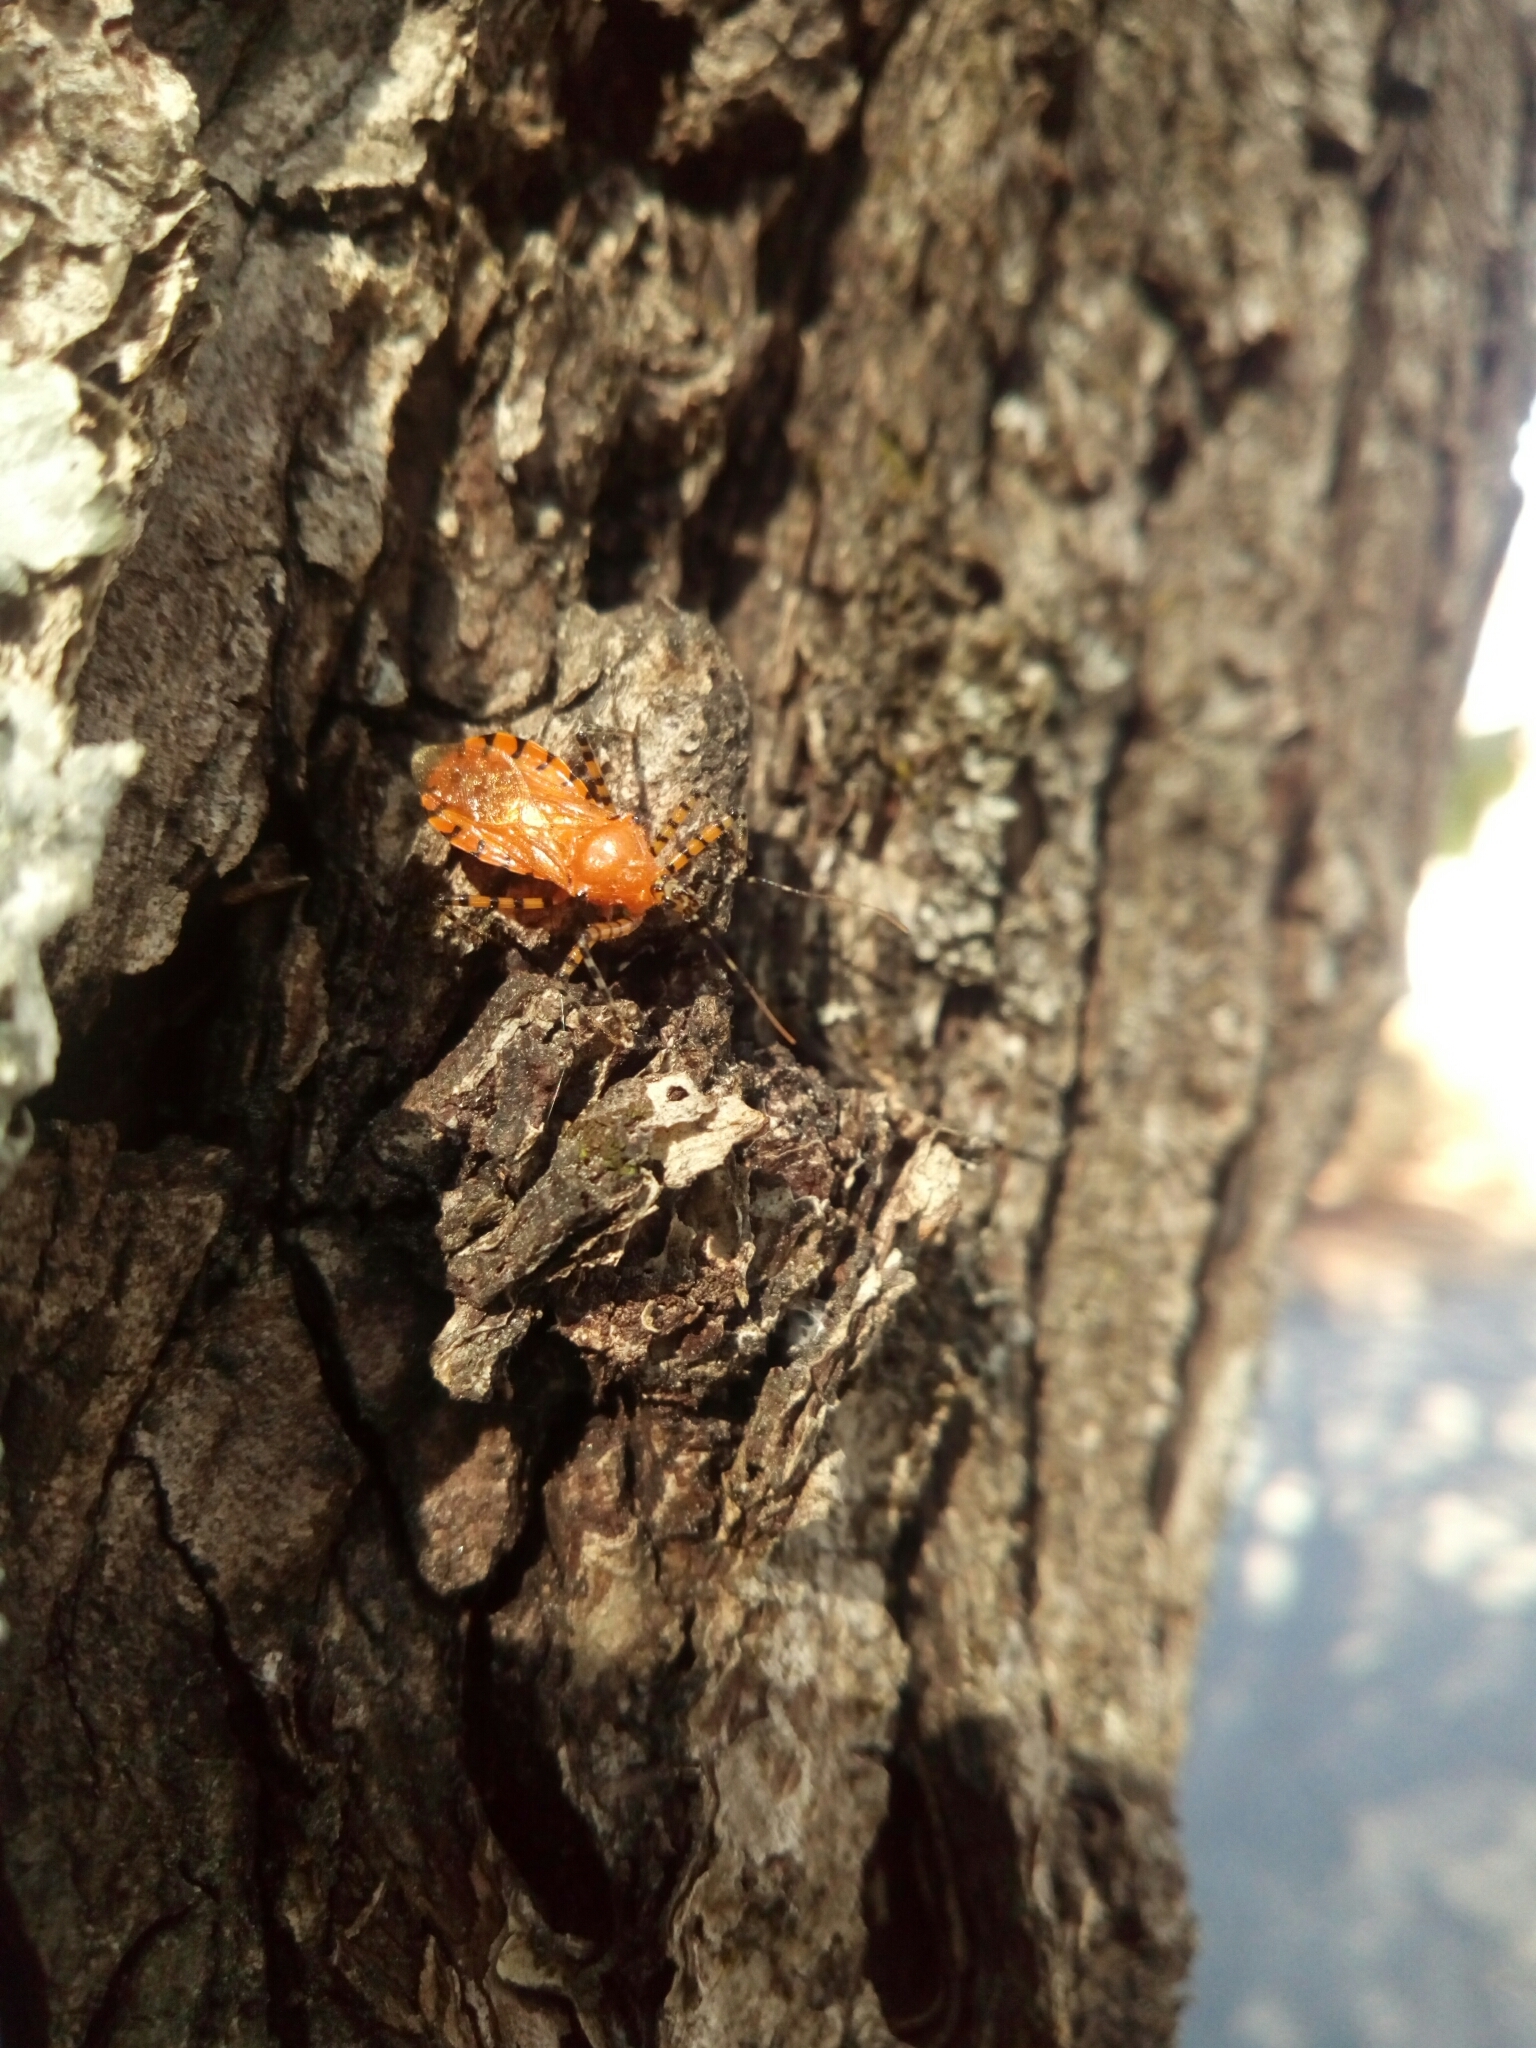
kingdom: Animalia
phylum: Arthropoda
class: Insecta
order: Hemiptera
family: Reduviidae
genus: Pselliopus
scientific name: Pselliopus barberi
